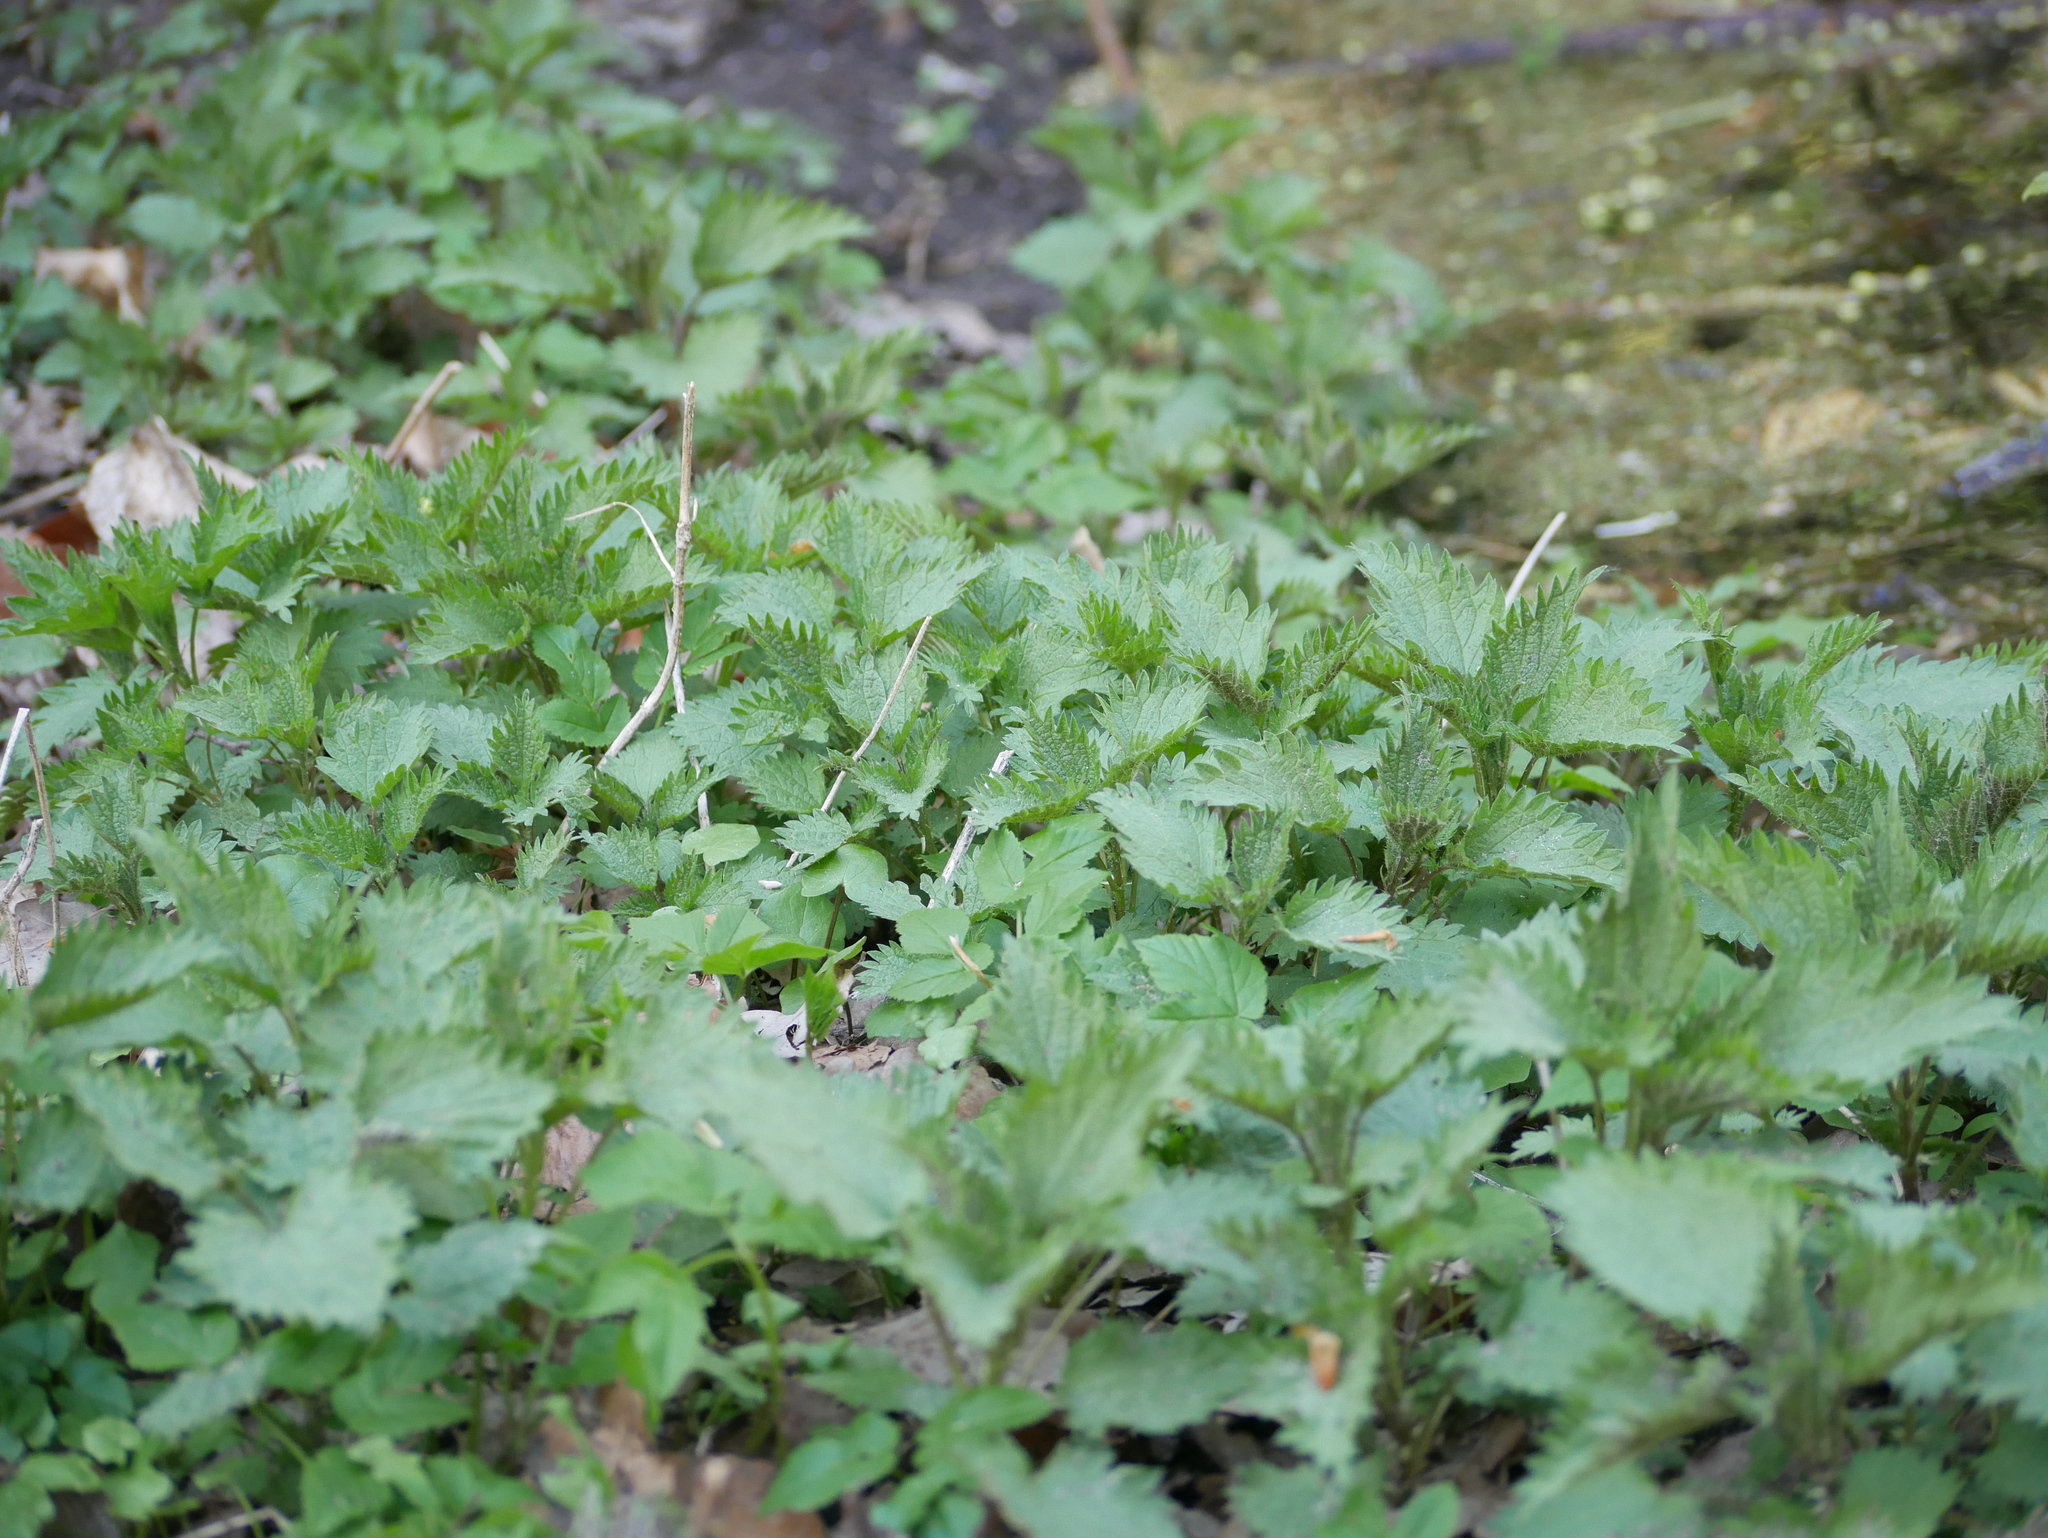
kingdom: Plantae
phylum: Tracheophyta
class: Magnoliopsida
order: Rosales
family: Urticaceae
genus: Urtica
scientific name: Urtica dioica
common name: Common nettle
